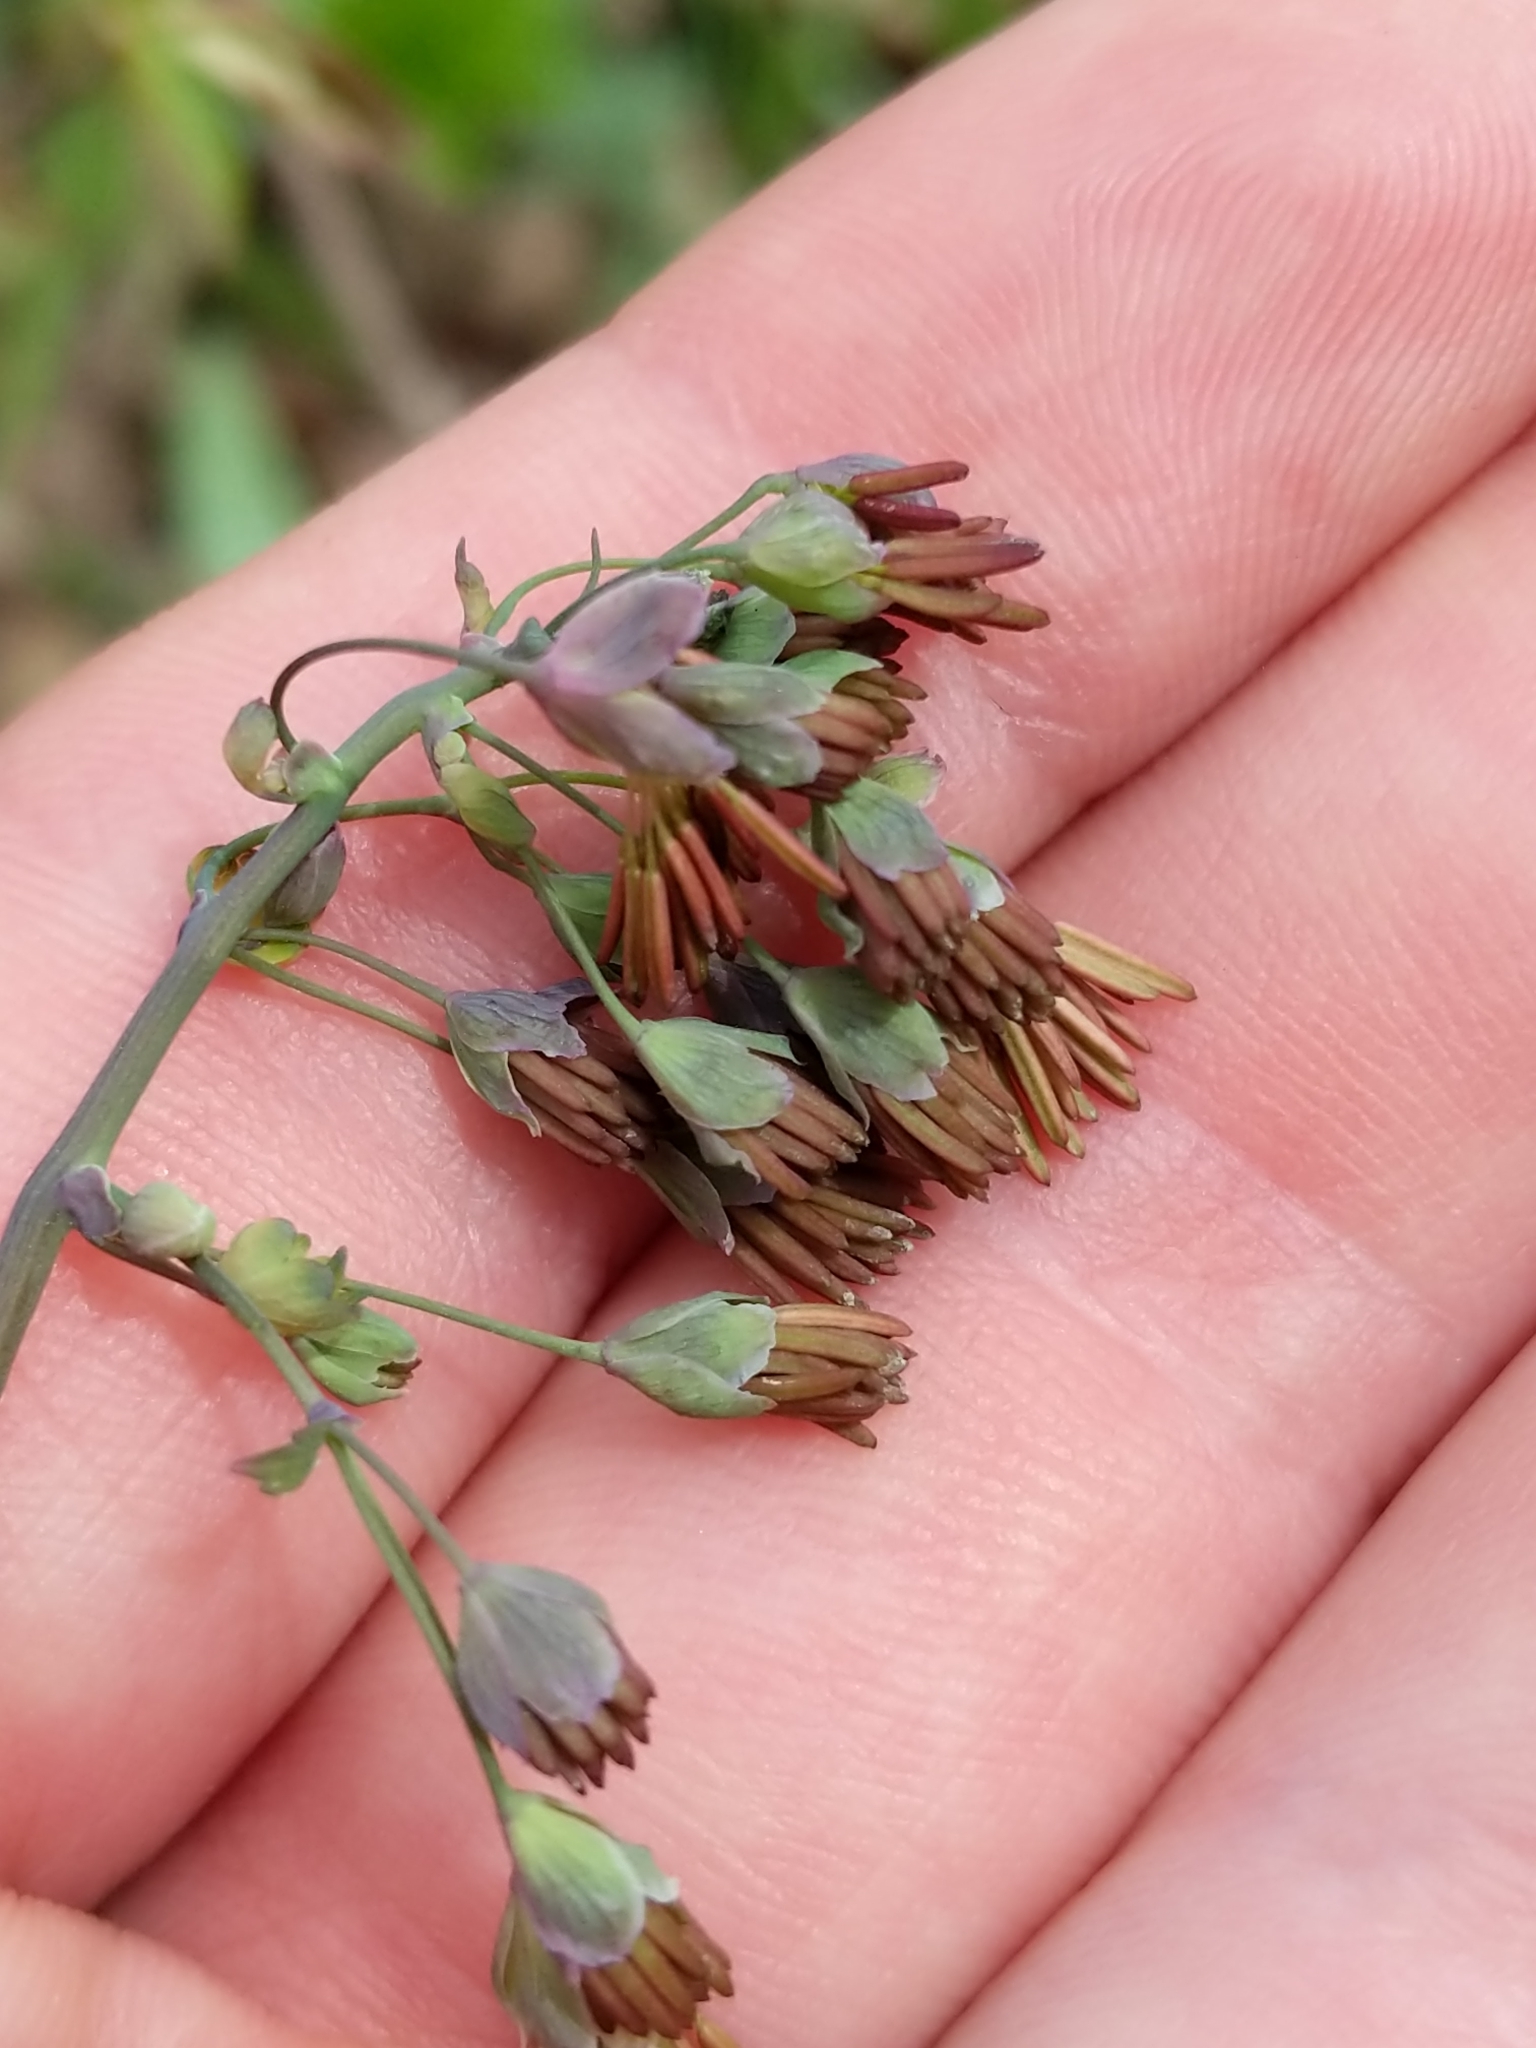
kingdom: Plantae
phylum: Tracheophyta
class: Magnoliopsida
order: Ranunculales
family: Ranunculaceae
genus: Thalictrum
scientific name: Thalictrum dioicum
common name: Early meadow-rue
